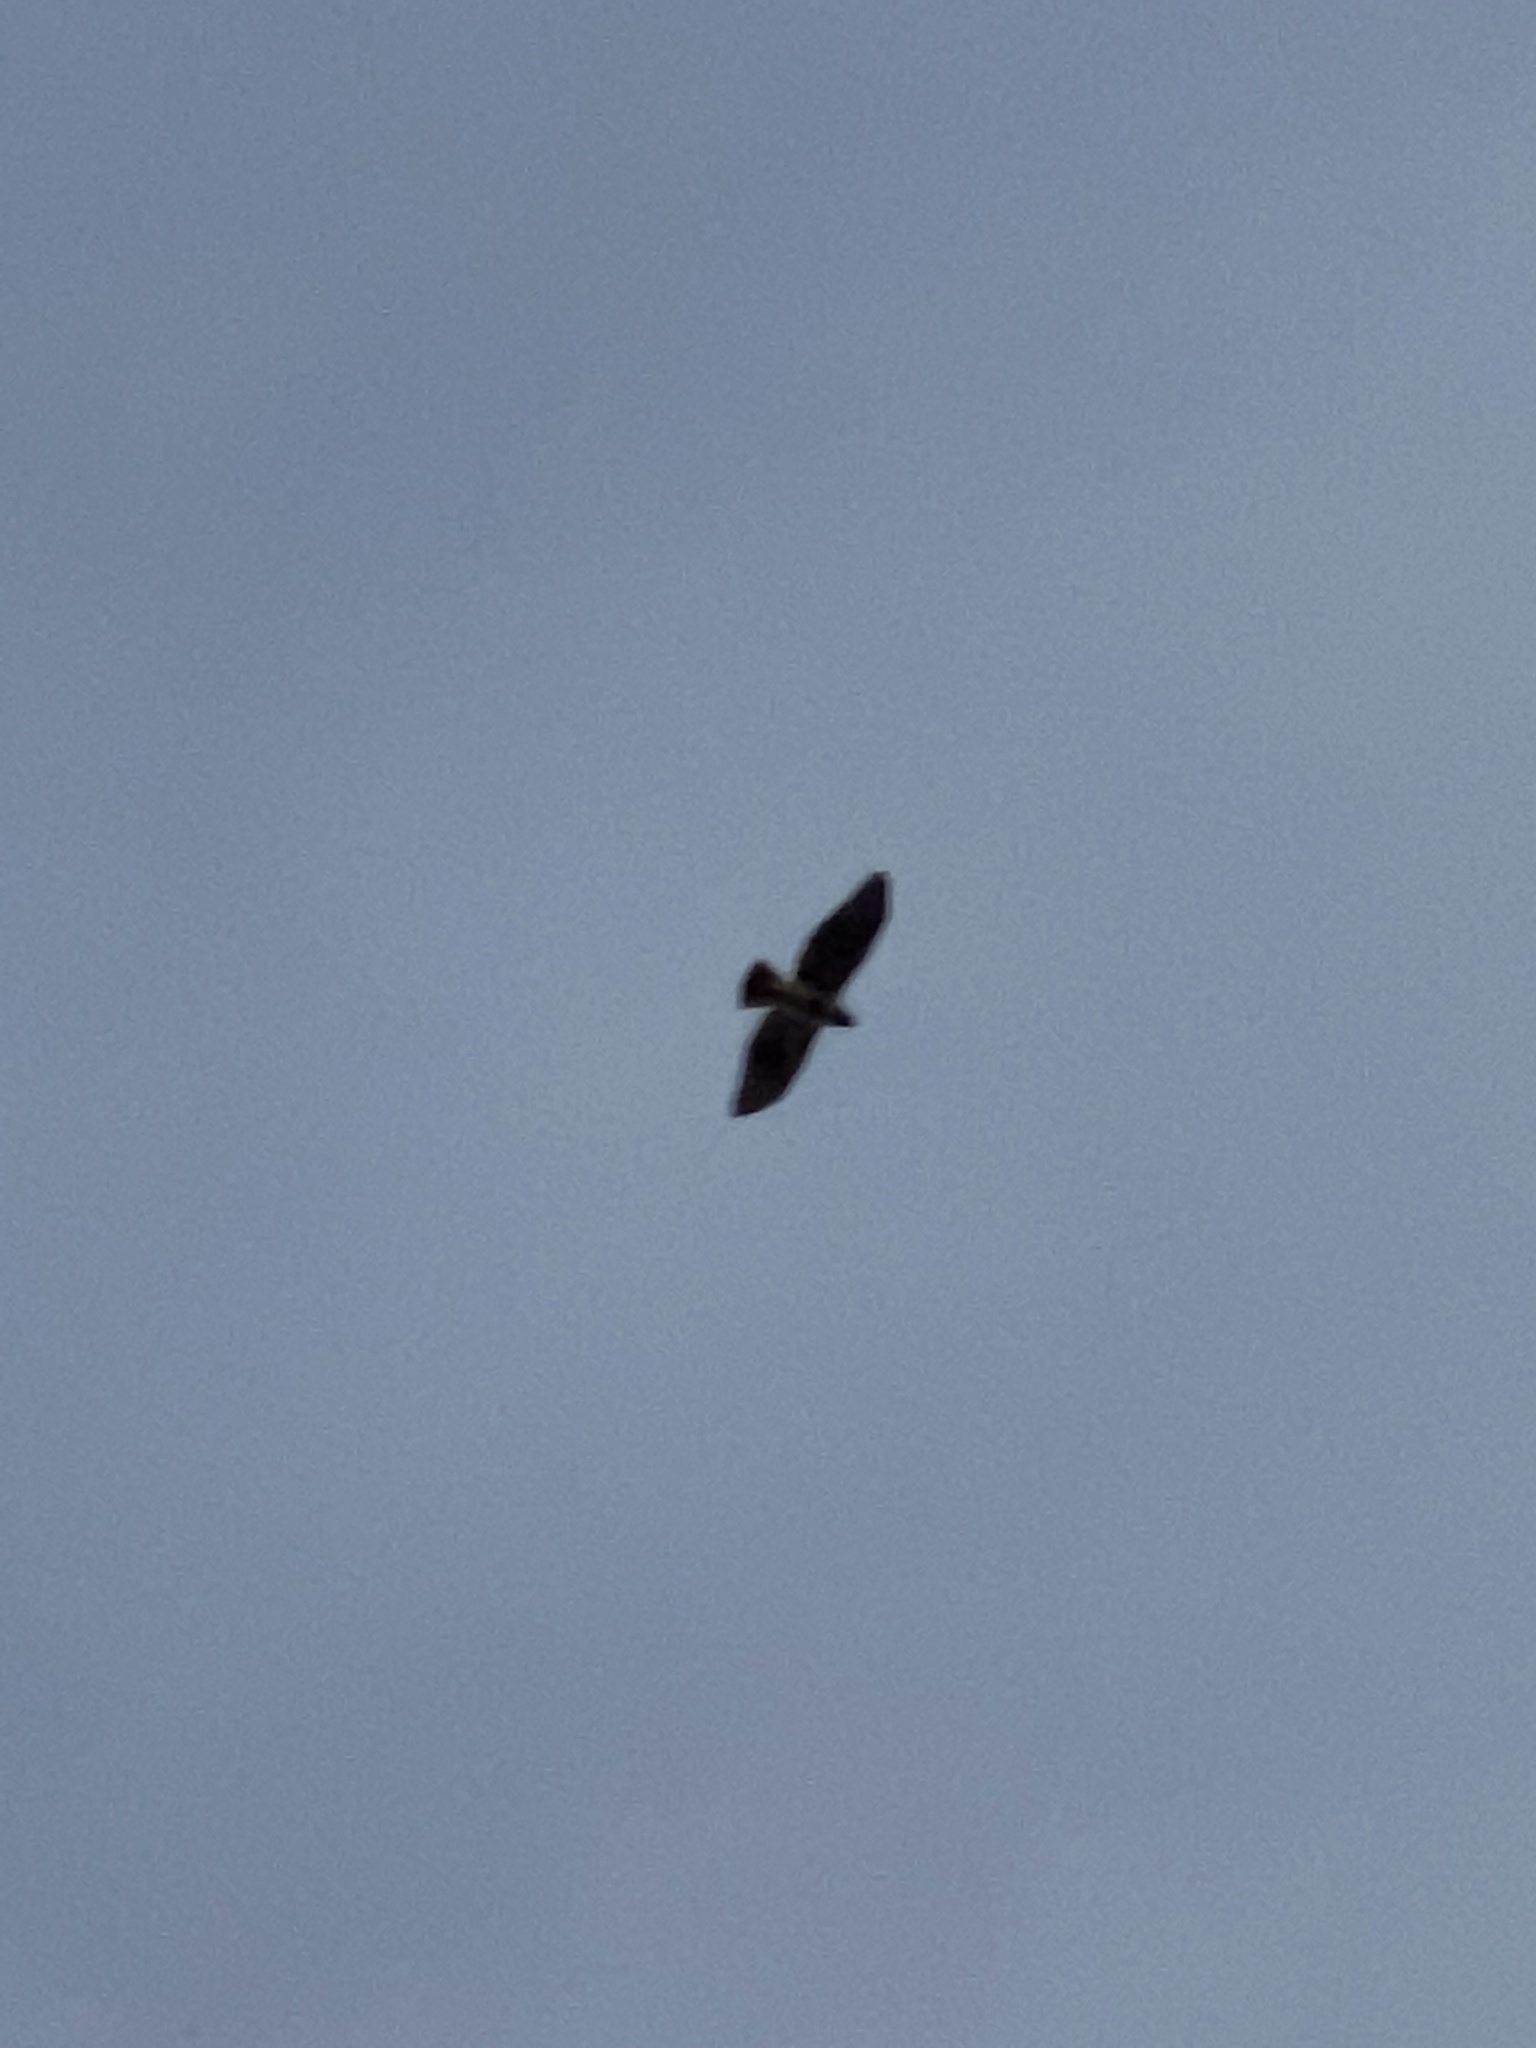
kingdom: Animalia
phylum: Chordata
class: Aves
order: Accipitriformes
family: Accipitridae
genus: Buteo
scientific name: Buteo jamaicensis
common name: Red-tailed hawk
